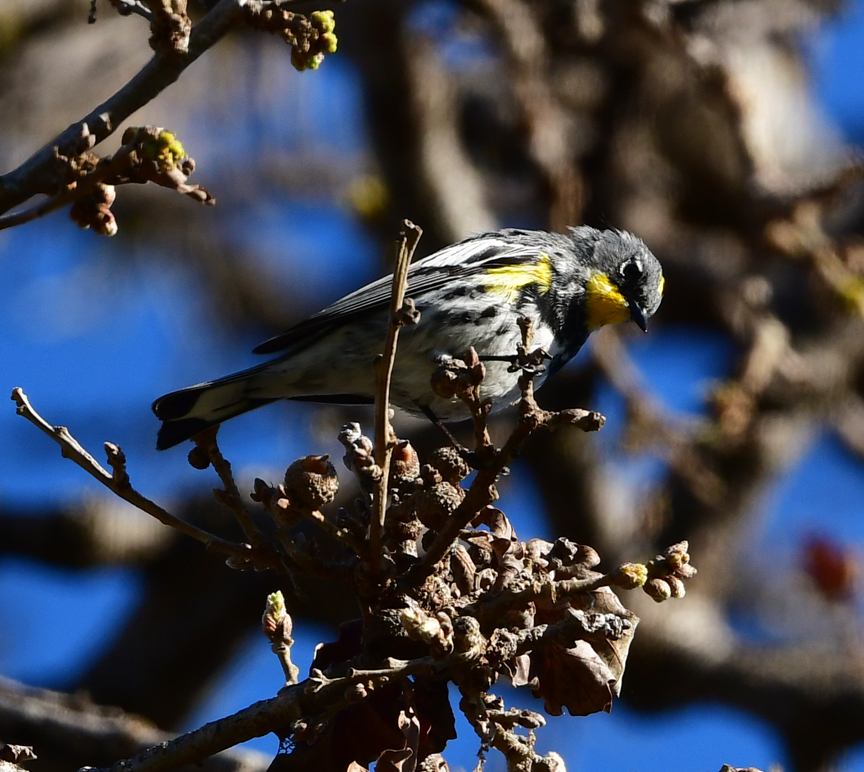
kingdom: Animalia
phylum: Chordata
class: Aves
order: Passeriformes
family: Parulidae
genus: Setophaga
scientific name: Setophaga coronata
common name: Myrtle warbler
